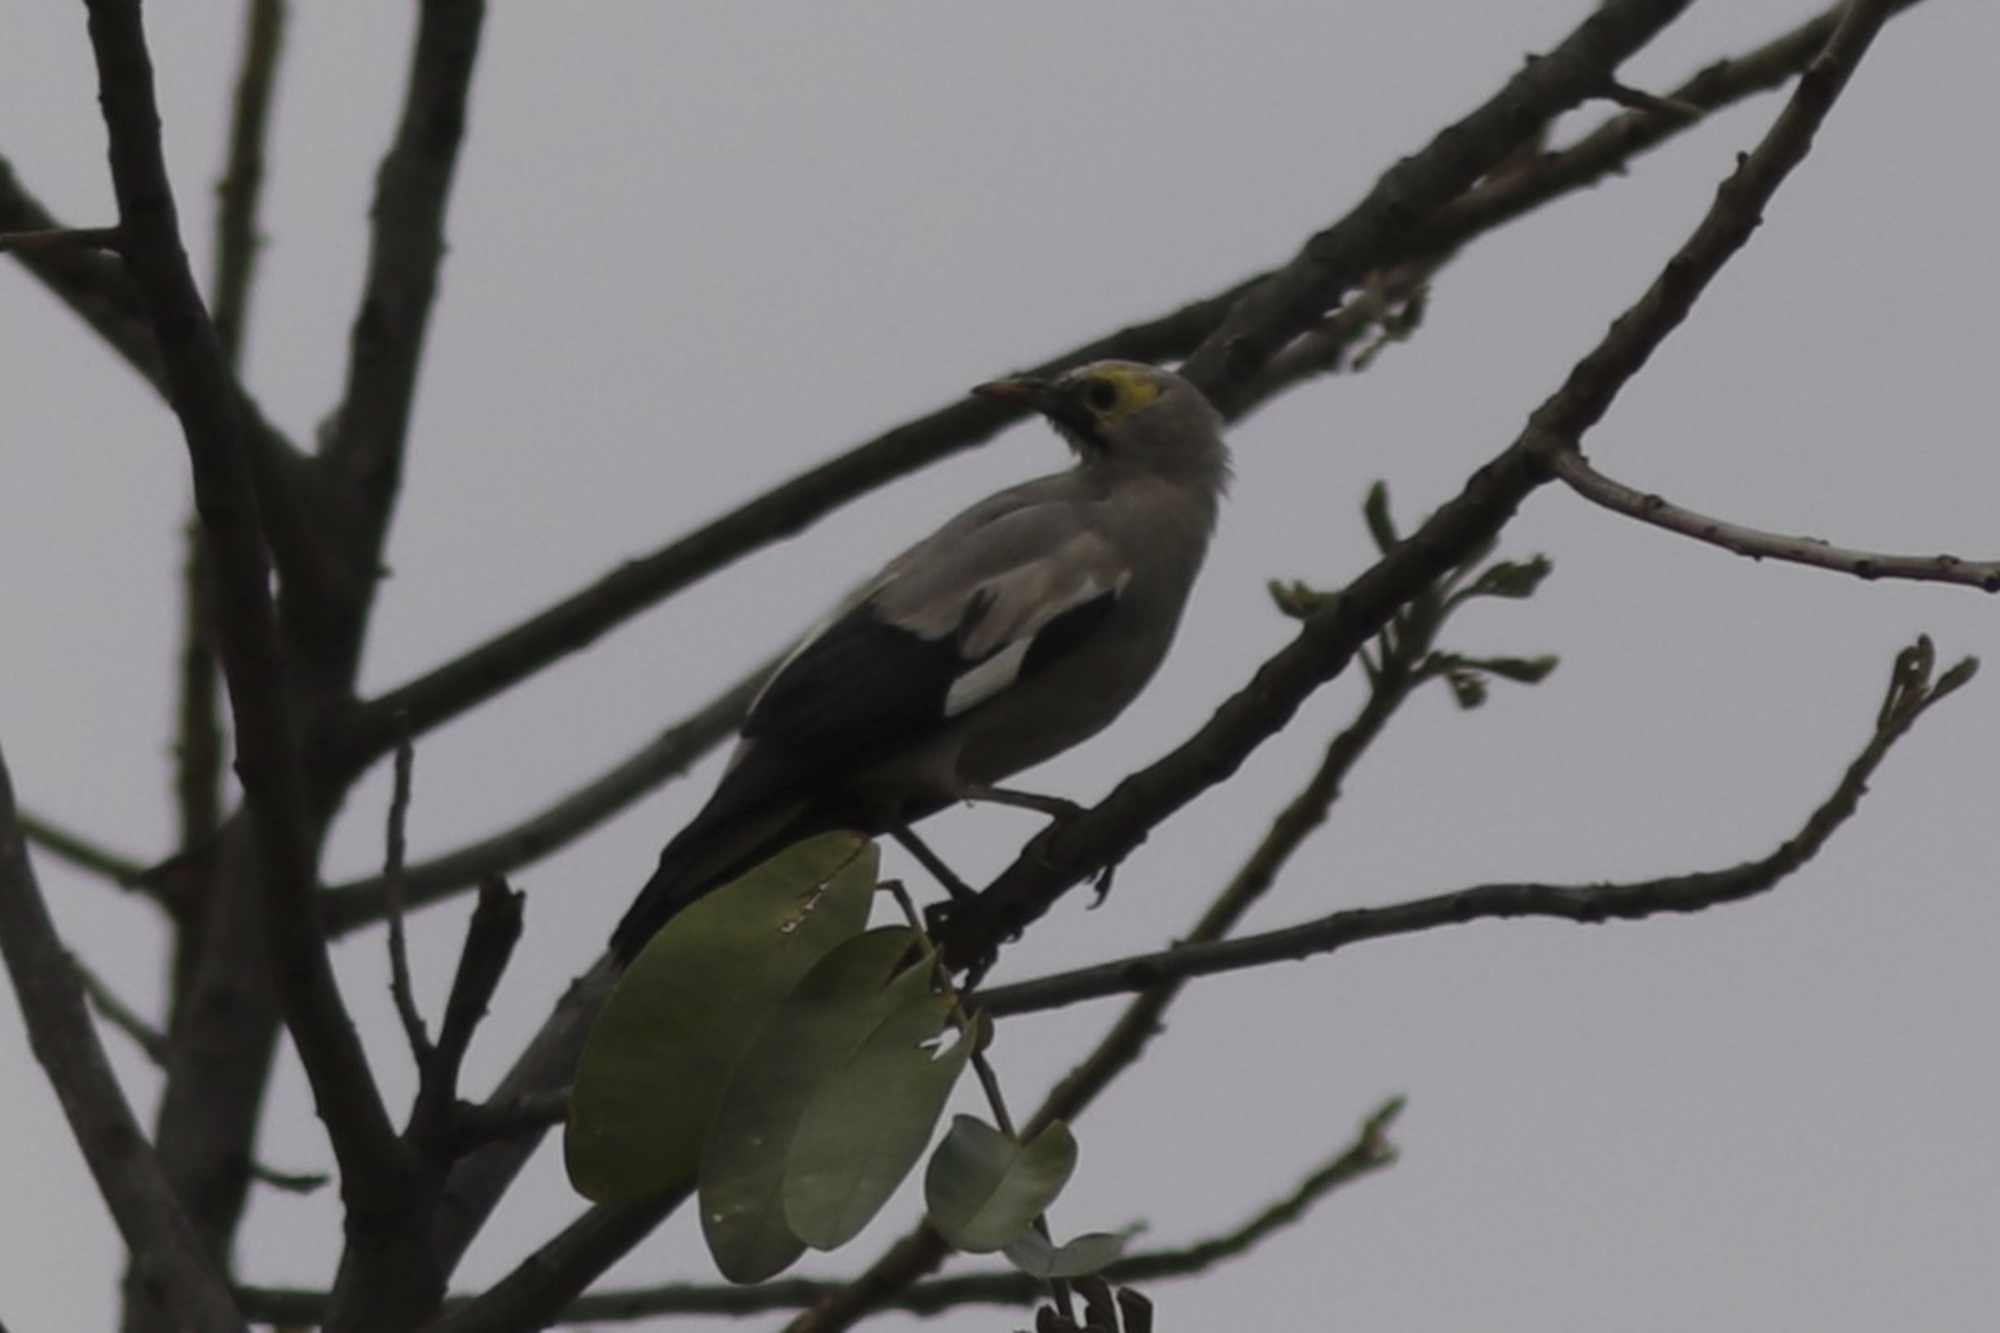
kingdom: Animalia
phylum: Chordata
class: Aves
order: Passeriformes
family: Sturnidae
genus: Creatophora
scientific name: Creatophora cinerea
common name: Wattled starling
